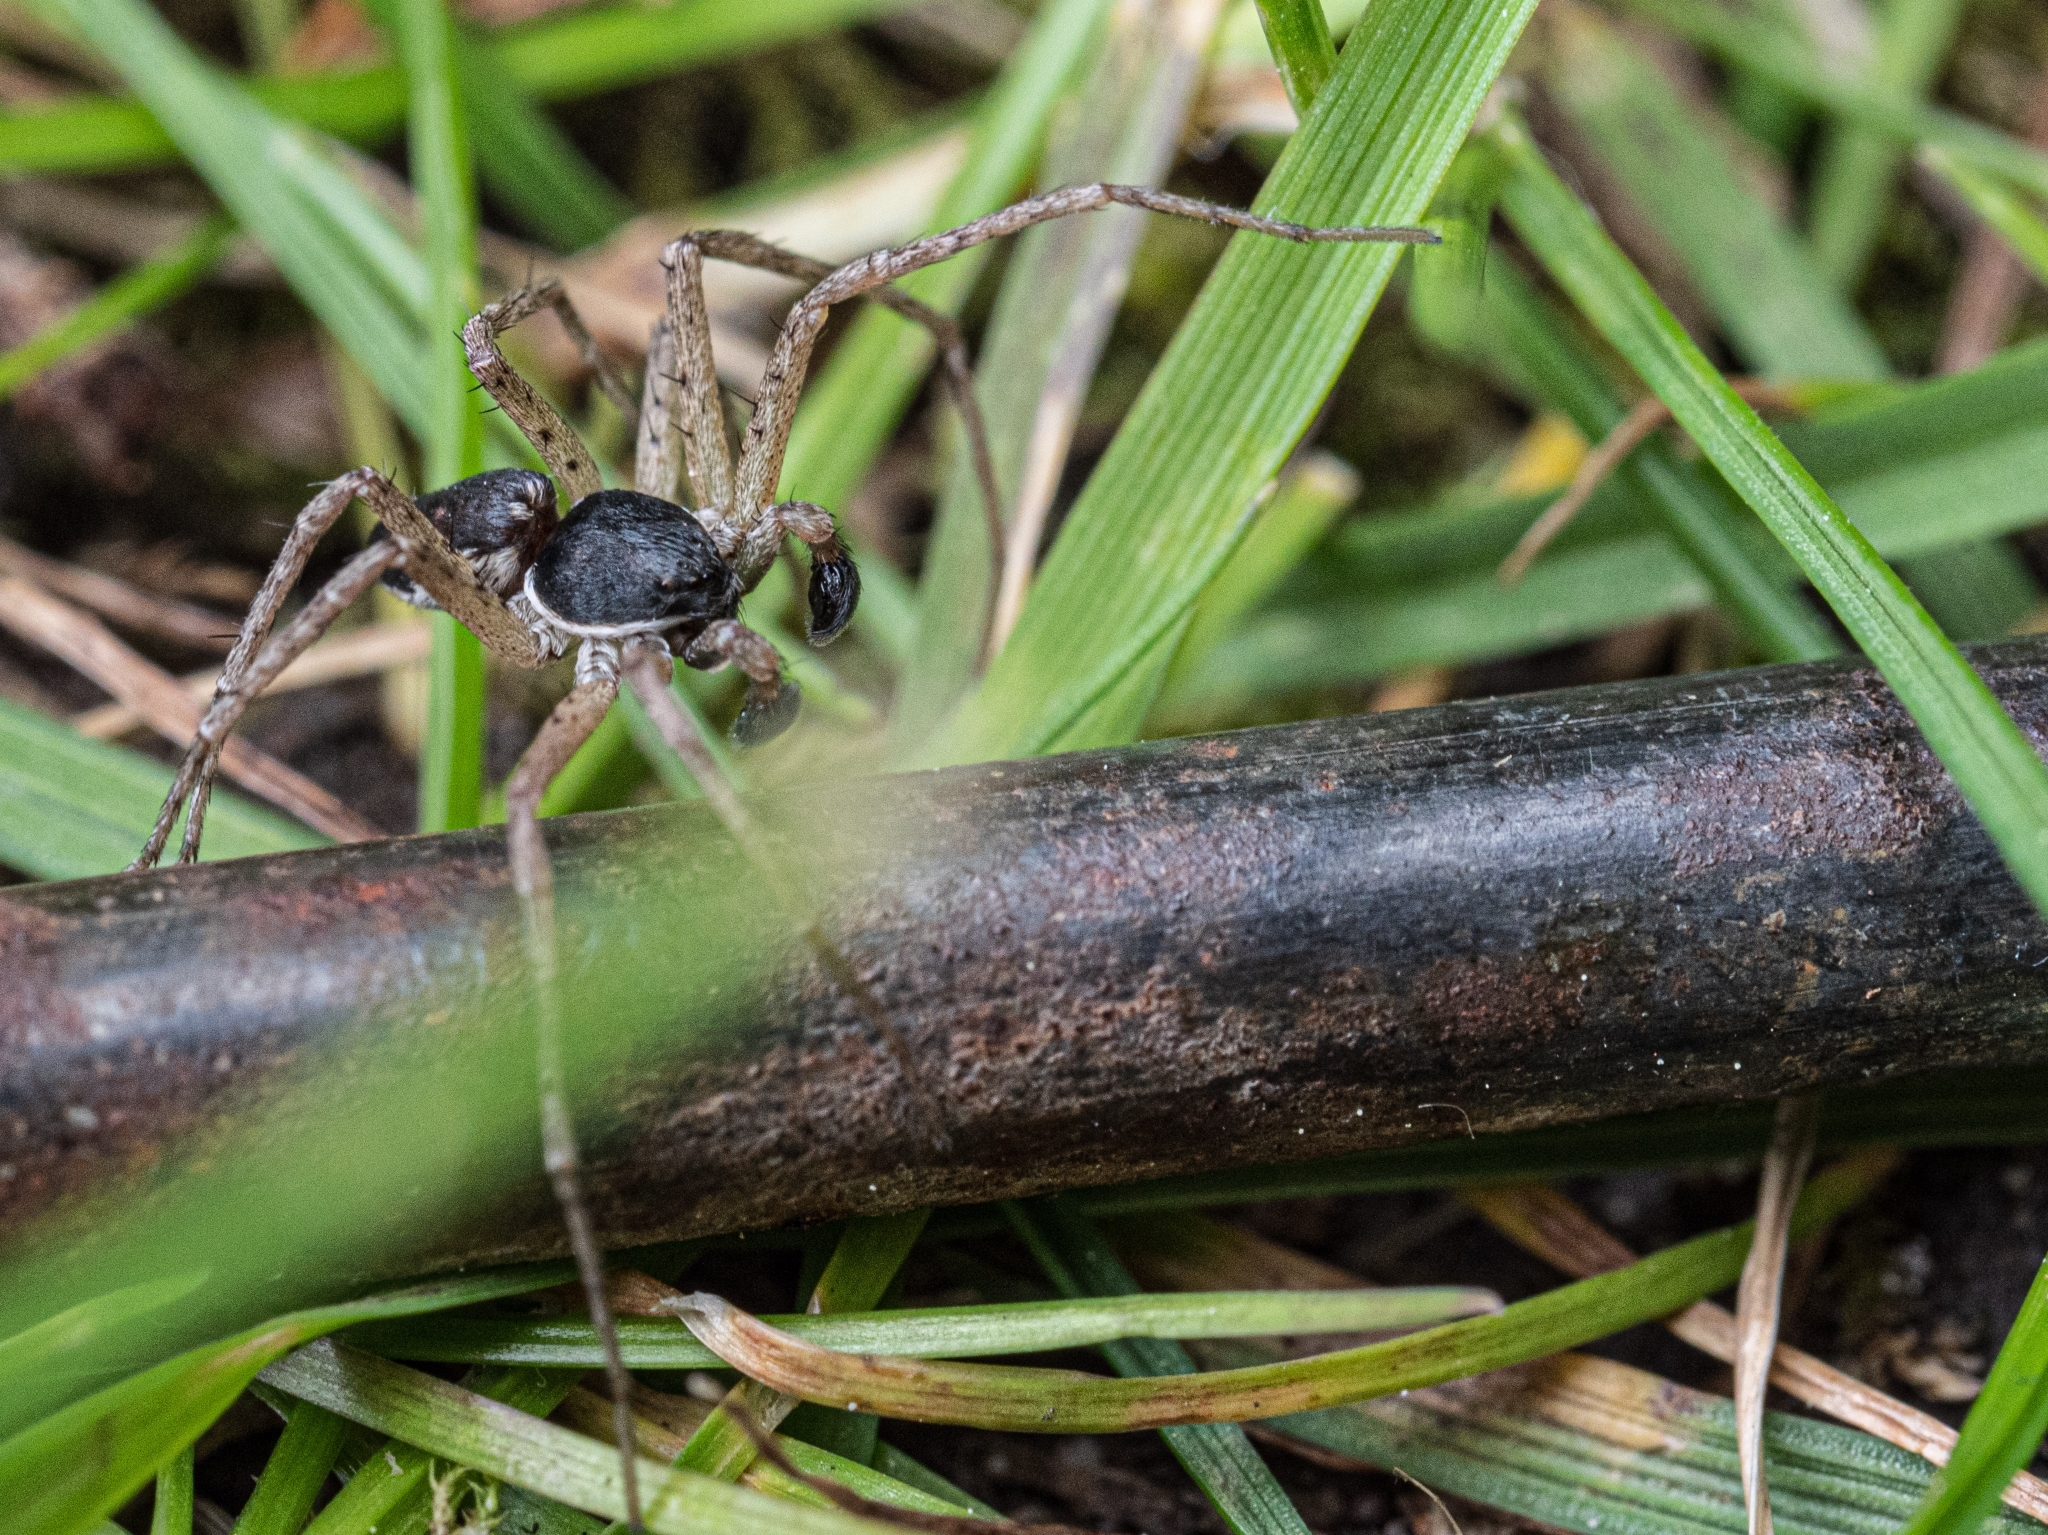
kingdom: Animalia
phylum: Arthropoda
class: Arachnida
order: Araneae
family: Philodromidae
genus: Philodromus
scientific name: Philodromus dispar
